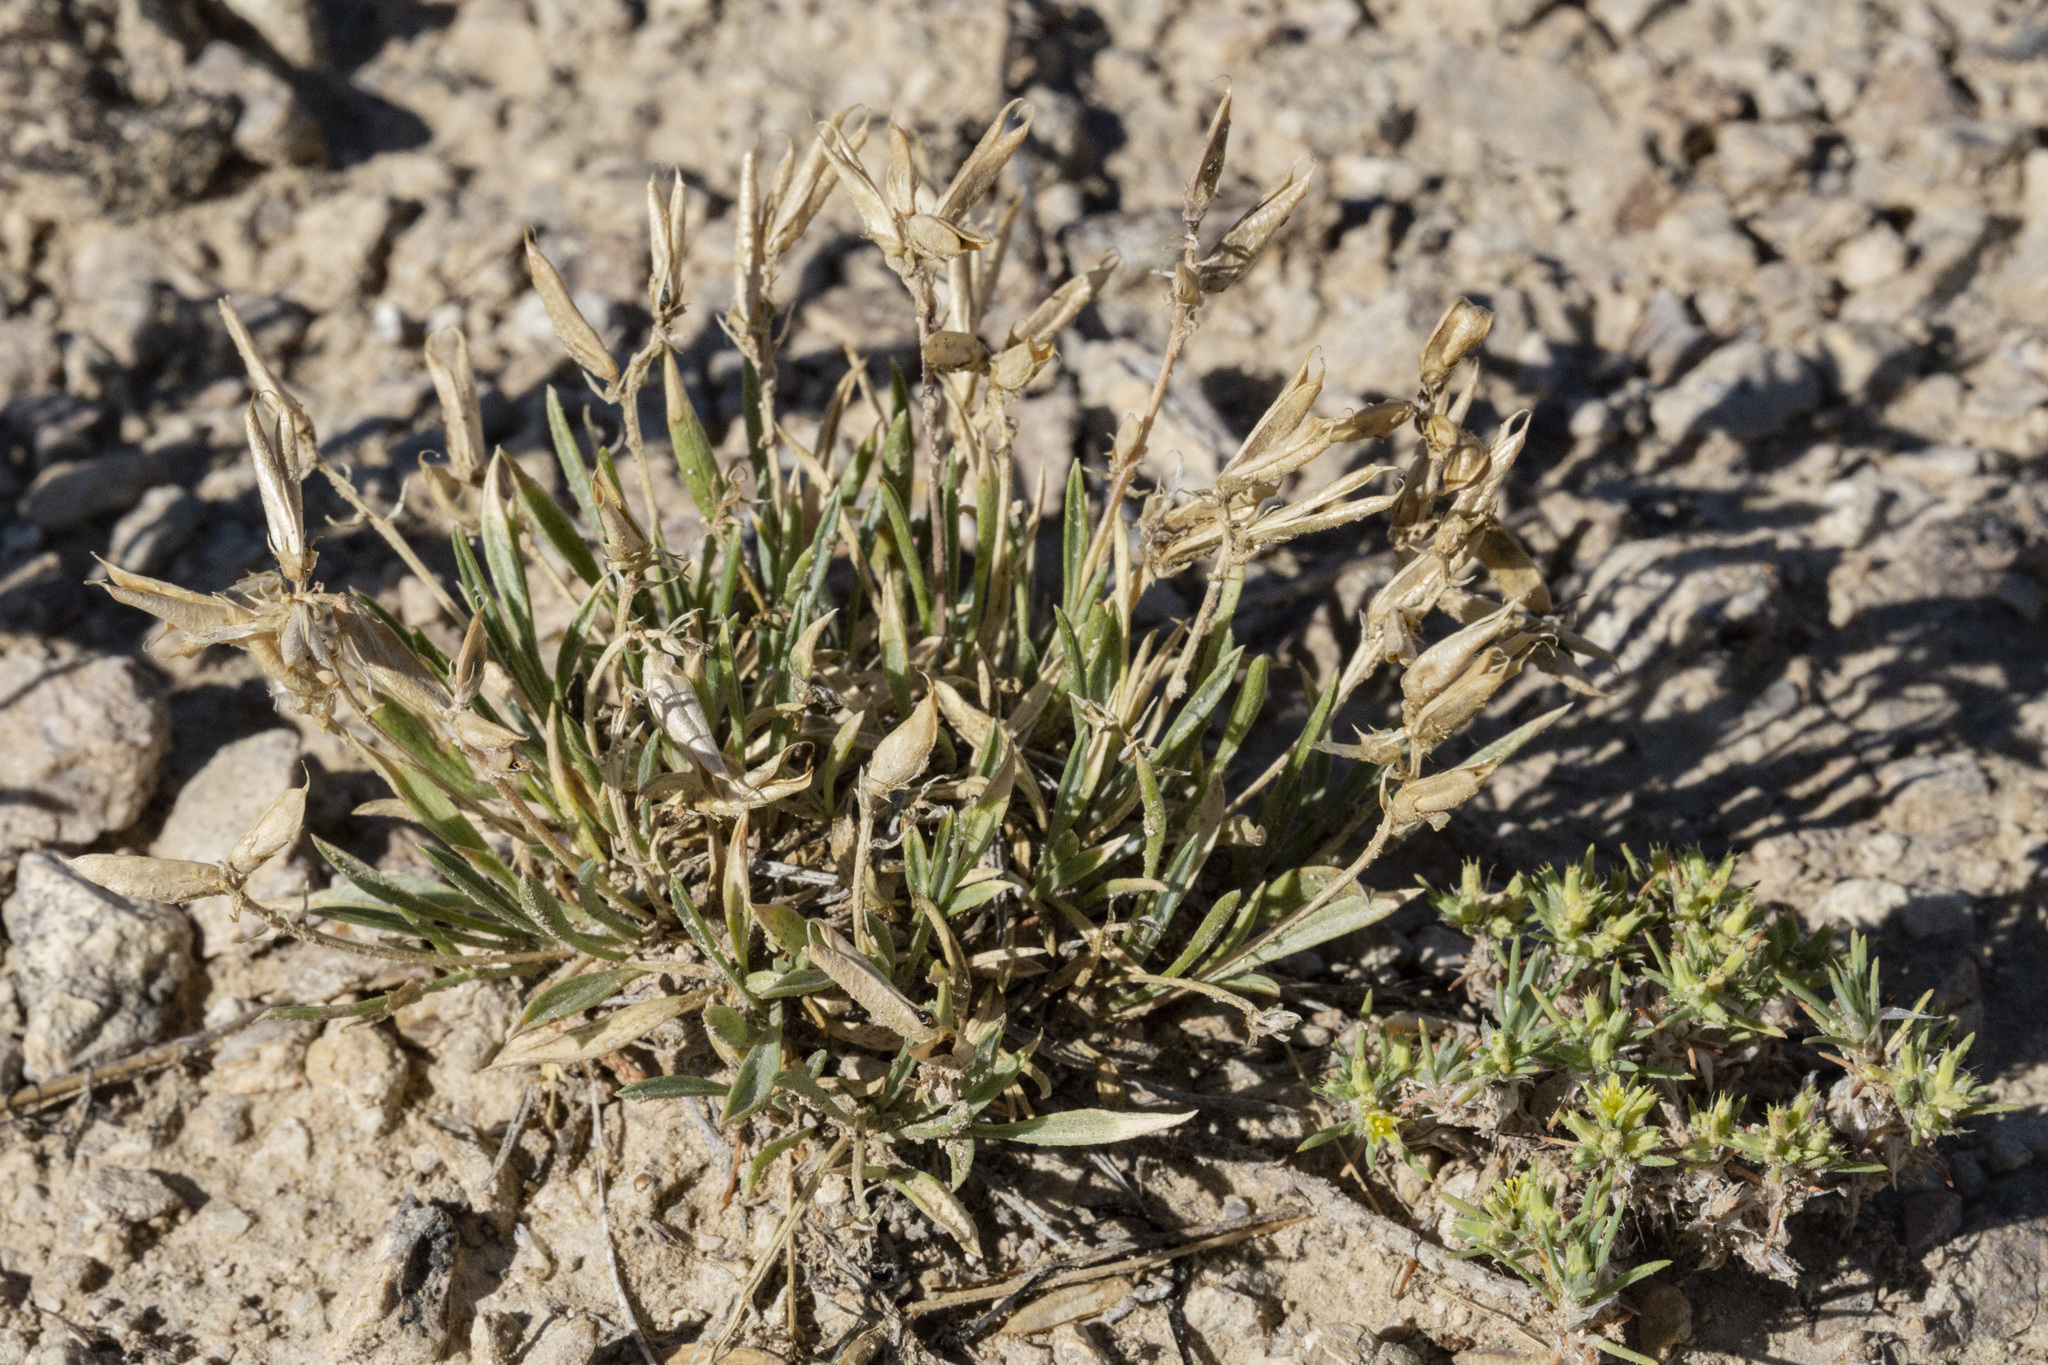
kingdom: Plantae
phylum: Tracheophyta
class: Magnoliopsida
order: Fabales
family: Fabaceae
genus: Astragalus
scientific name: Astragalus spatulatus
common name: Draba milk-vetch
